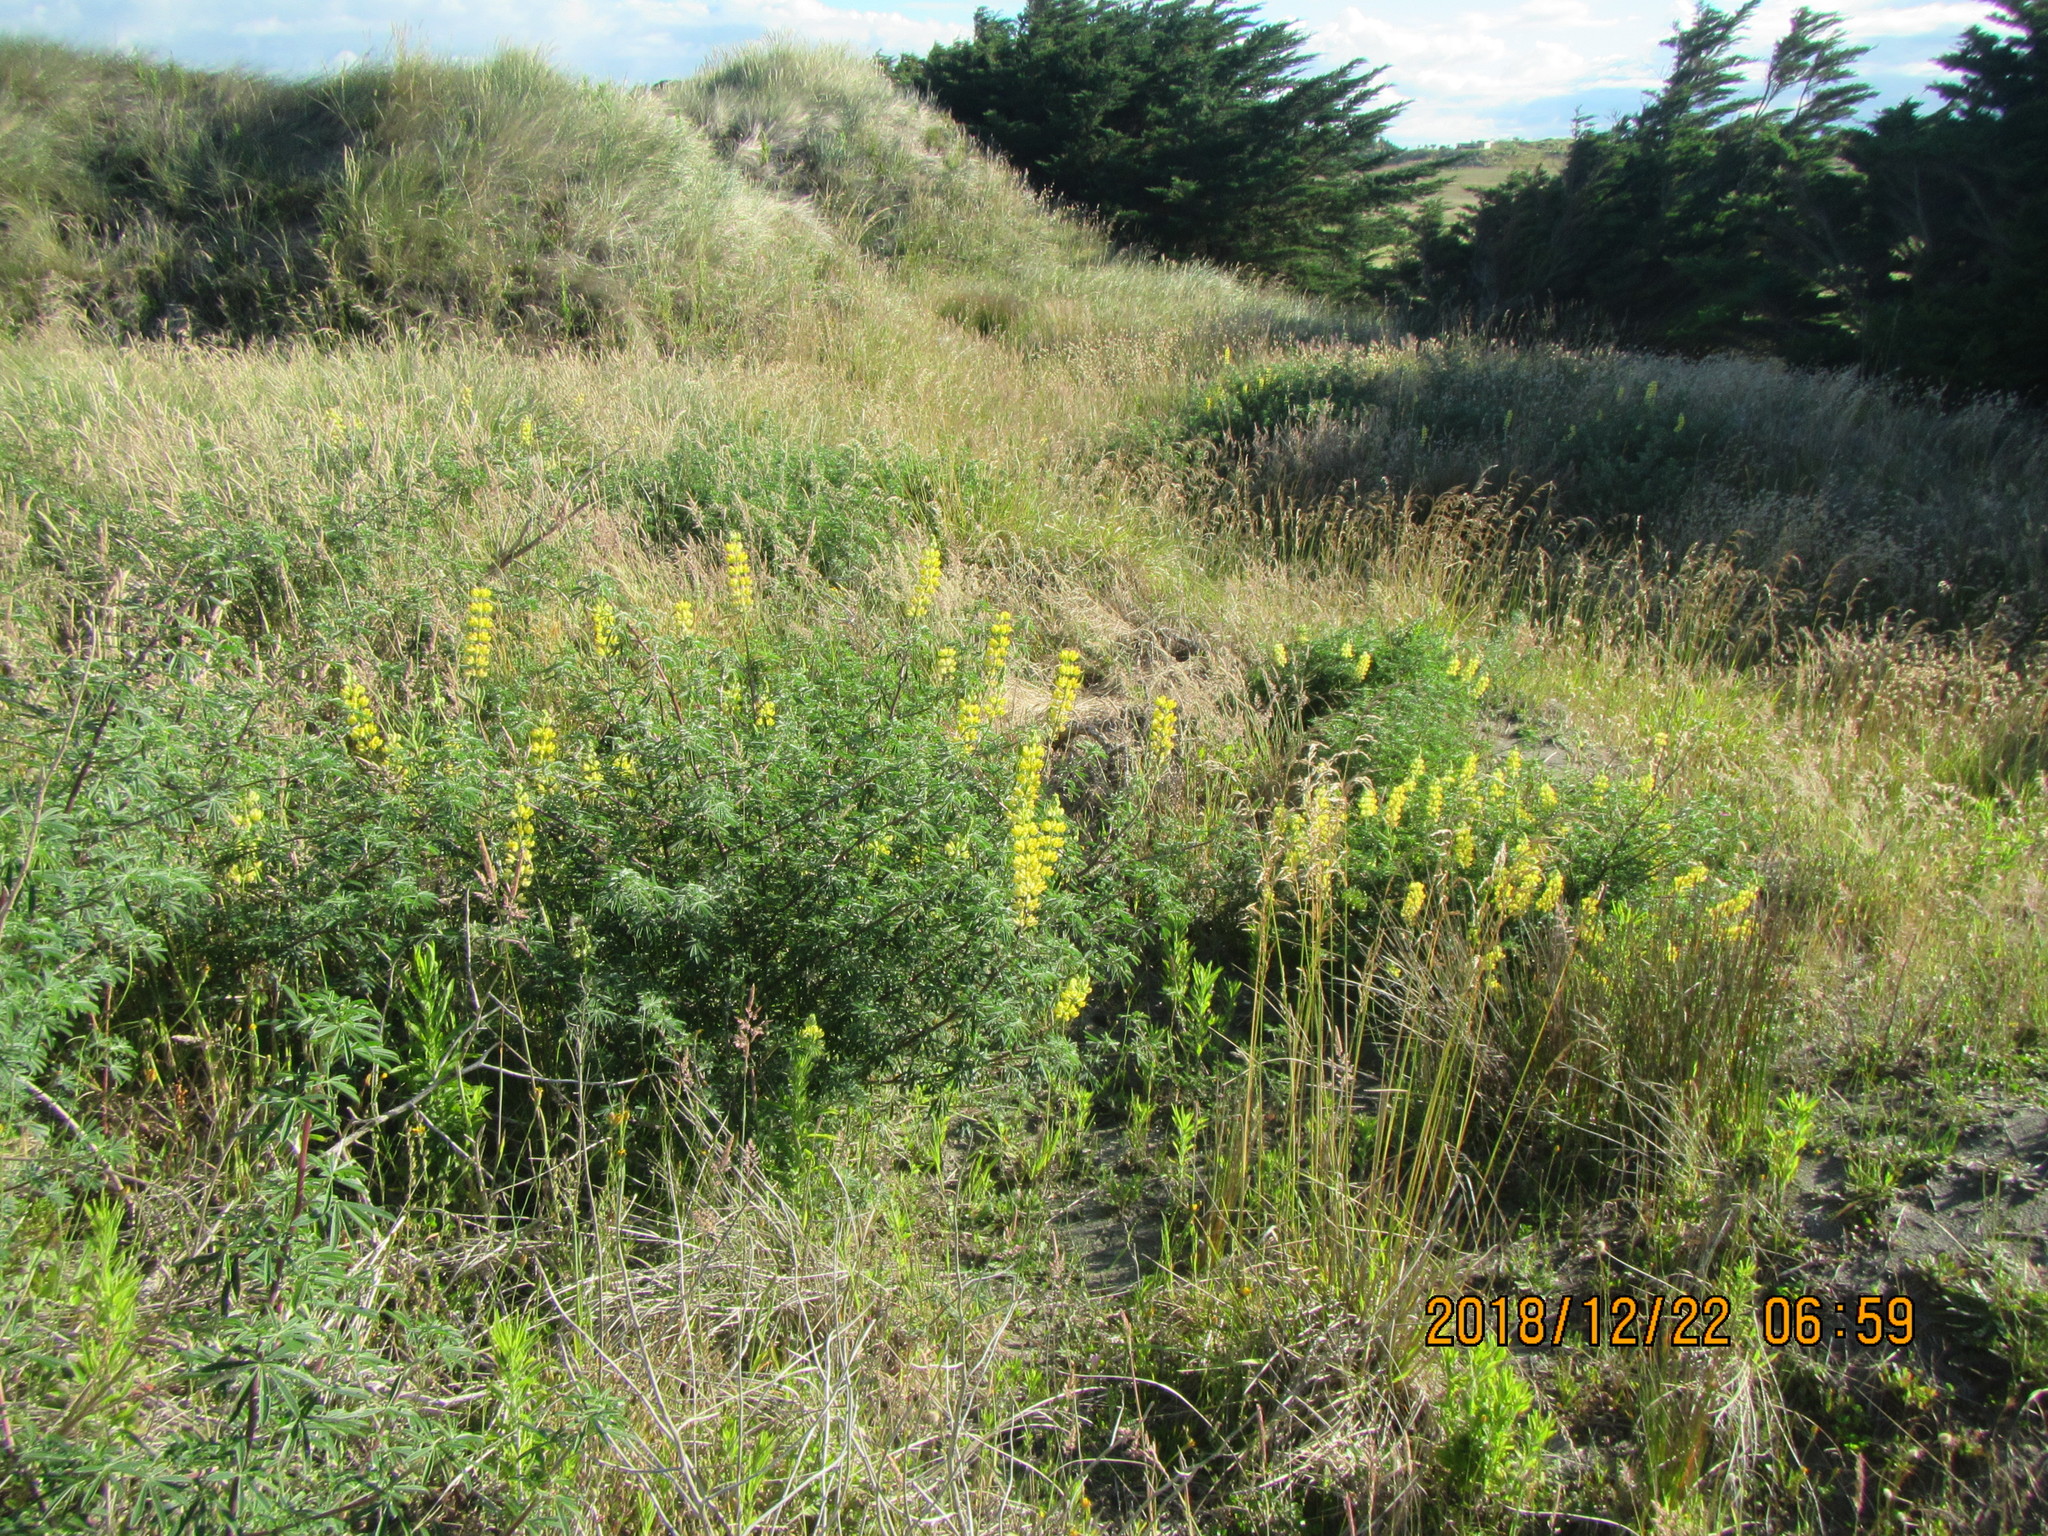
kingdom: Plantae
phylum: Tracheophyta
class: Magnoliopsida
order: Fabales
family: Fabaceae
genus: Lupinus
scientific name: Lupinus arboreus
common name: Yellow bush lupine
